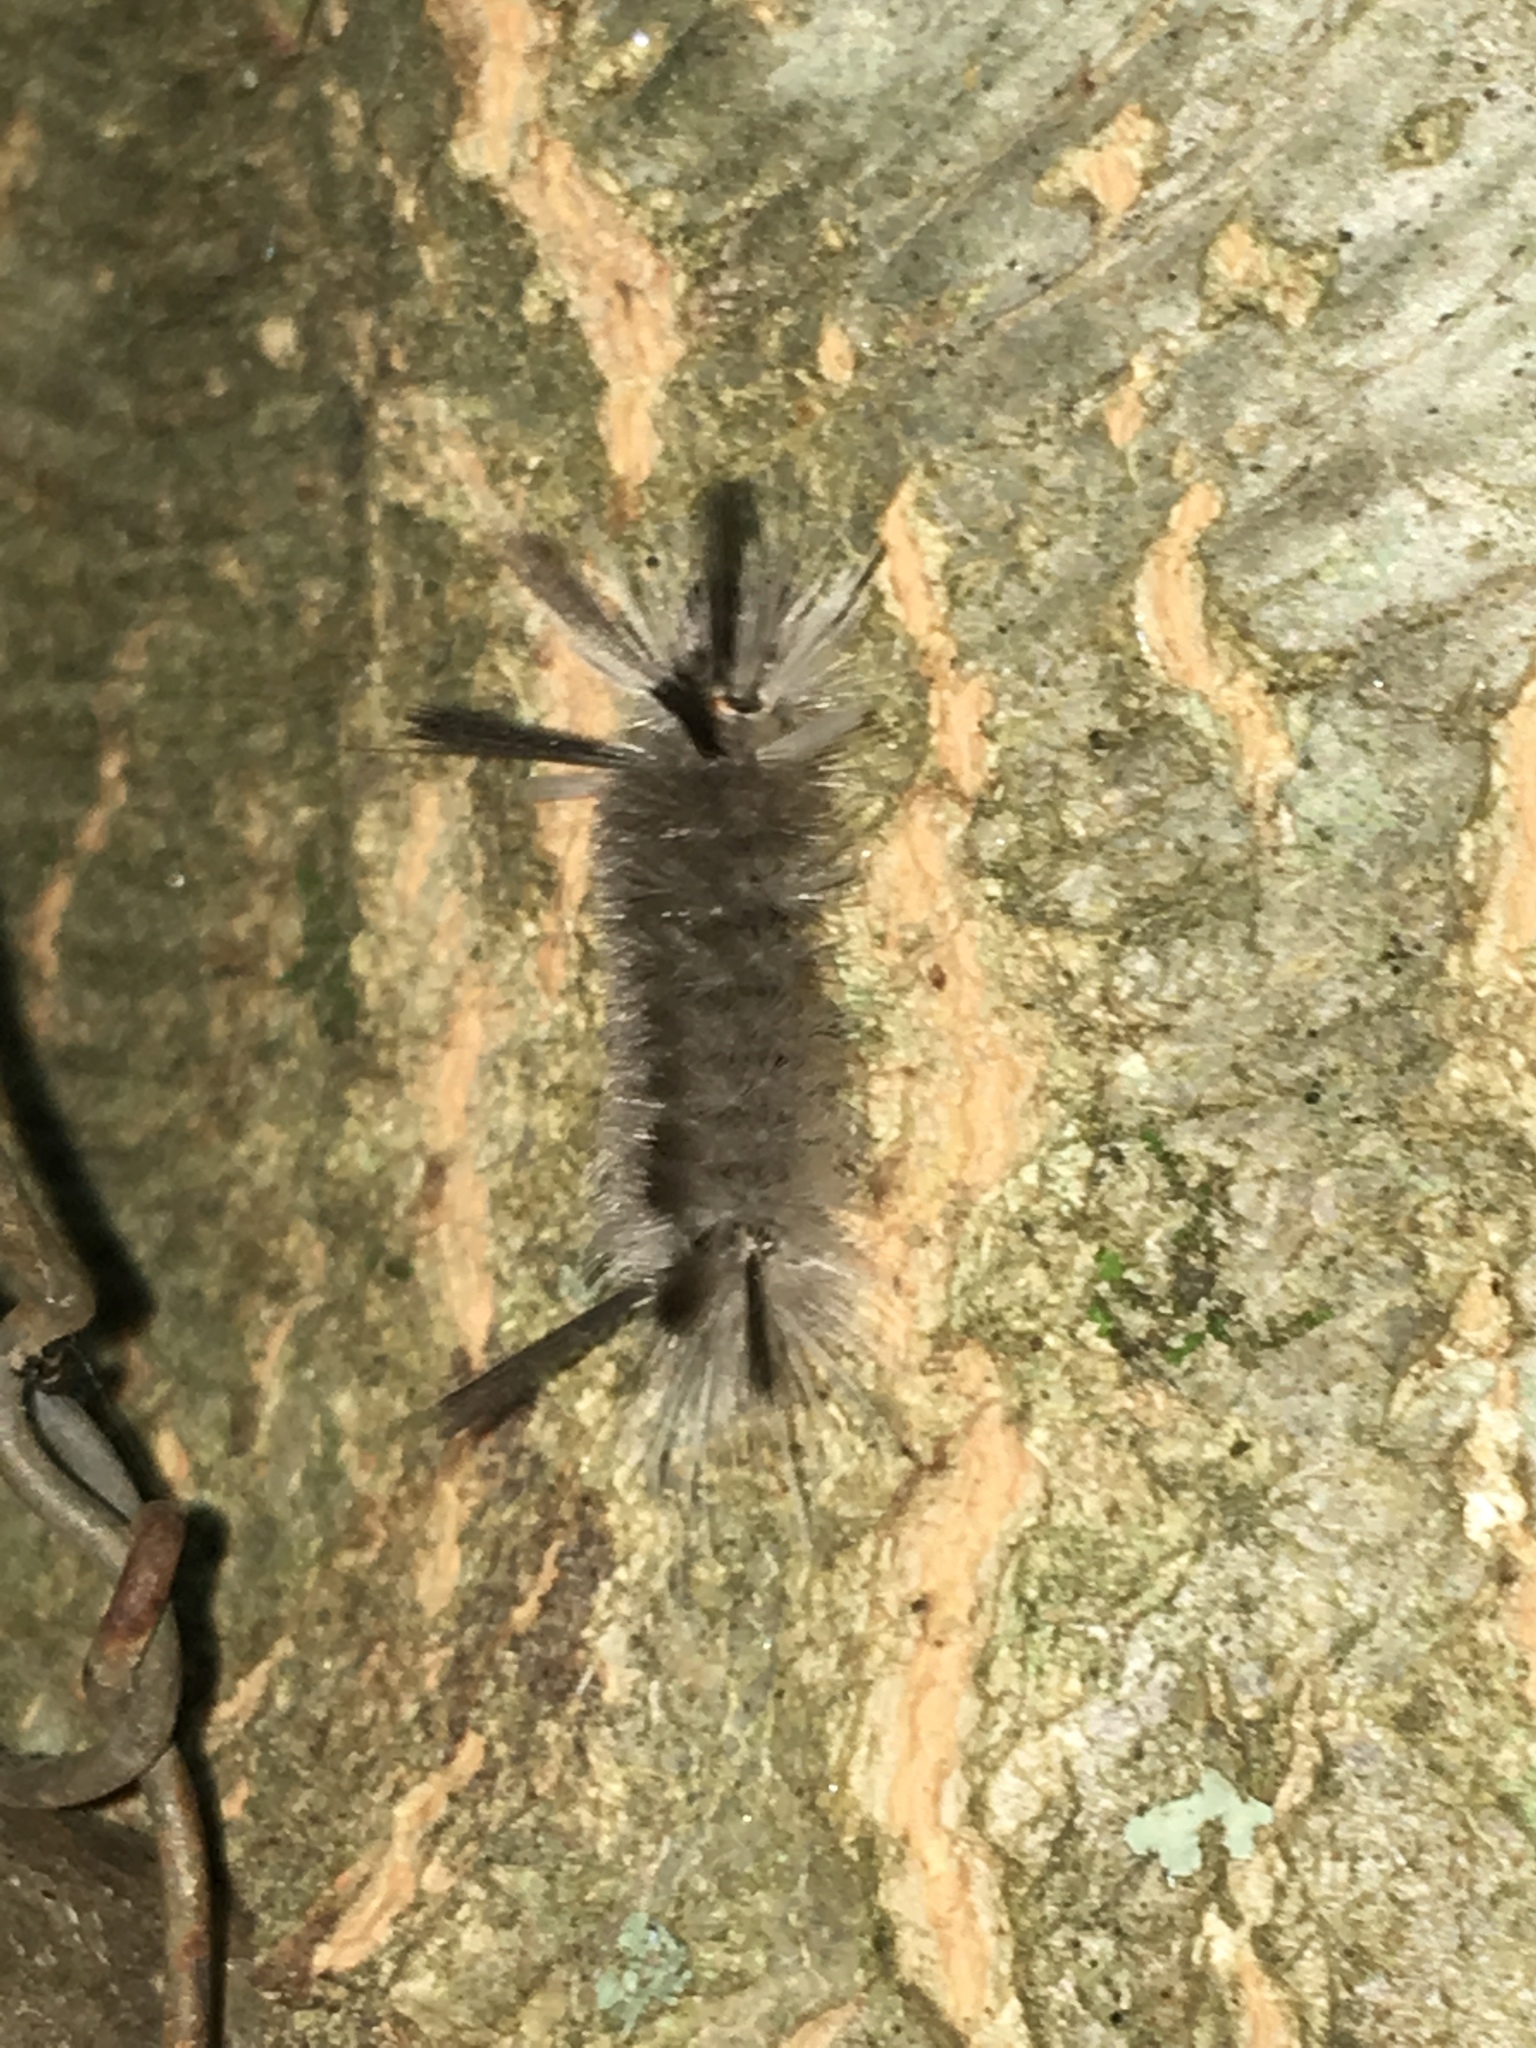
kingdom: Animalia
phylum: Arthropoda
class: Insecta
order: Lepidoptera
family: Erebidae
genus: Halysidota
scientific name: Halysidota tessellaris
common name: Banded tussock moth
